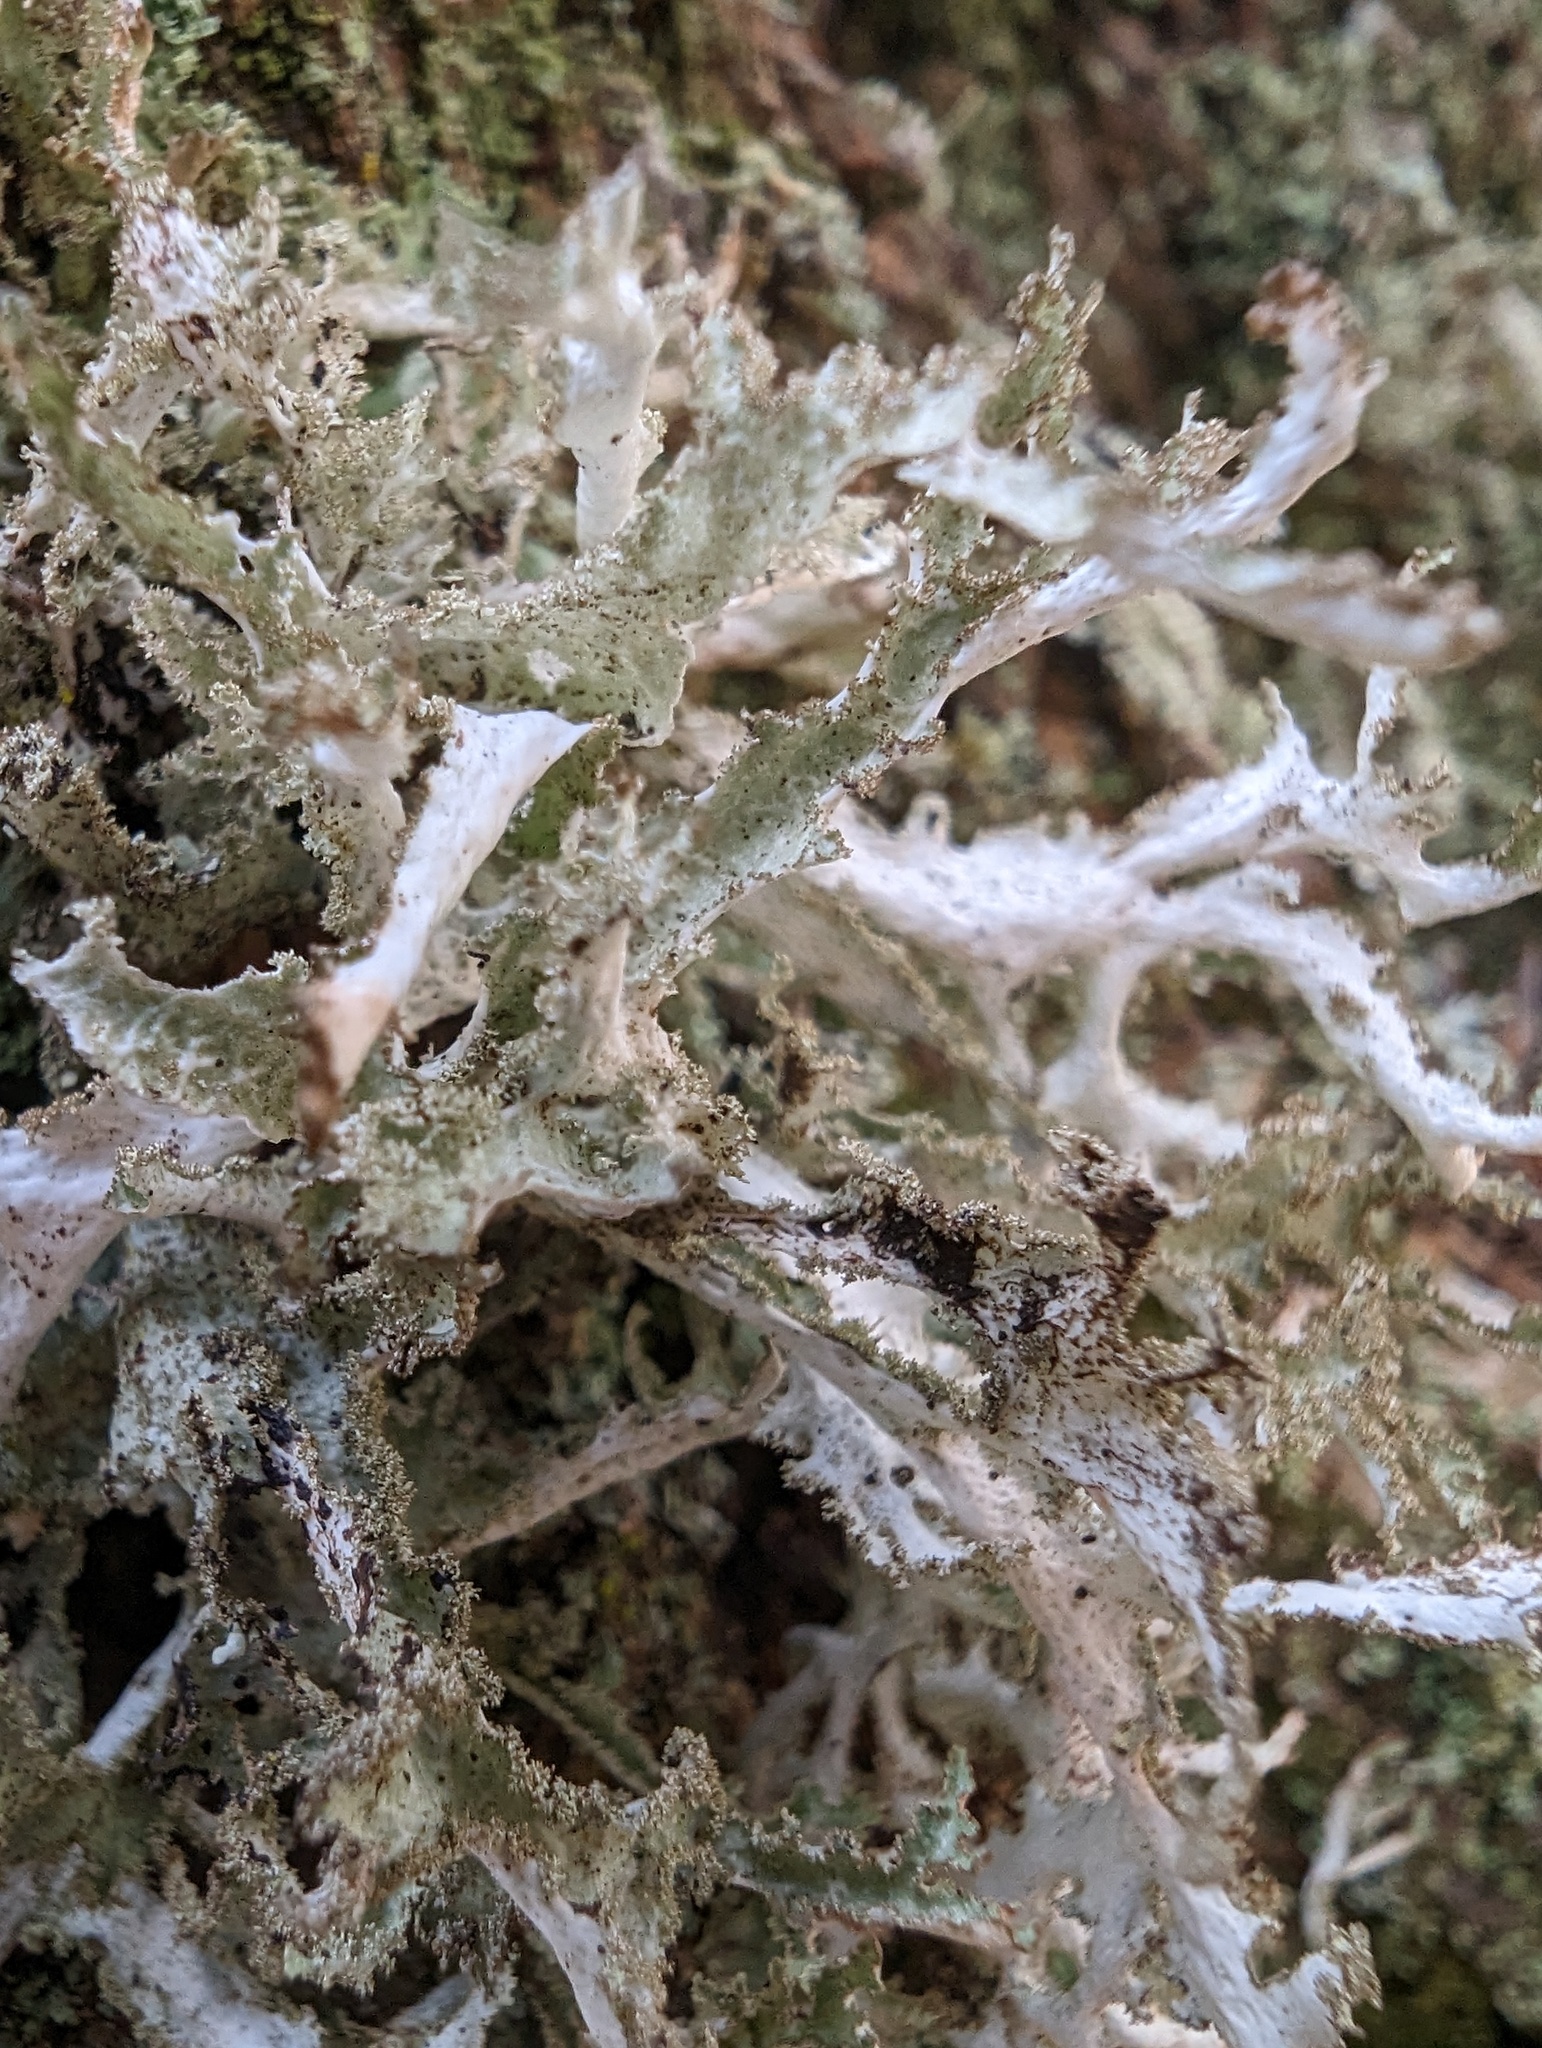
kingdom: Fungi
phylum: Ascomycota
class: Lecanoromycetes
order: Lecanorales
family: Parmeliaceae
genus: Platismatia
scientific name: Platismatia herrei
